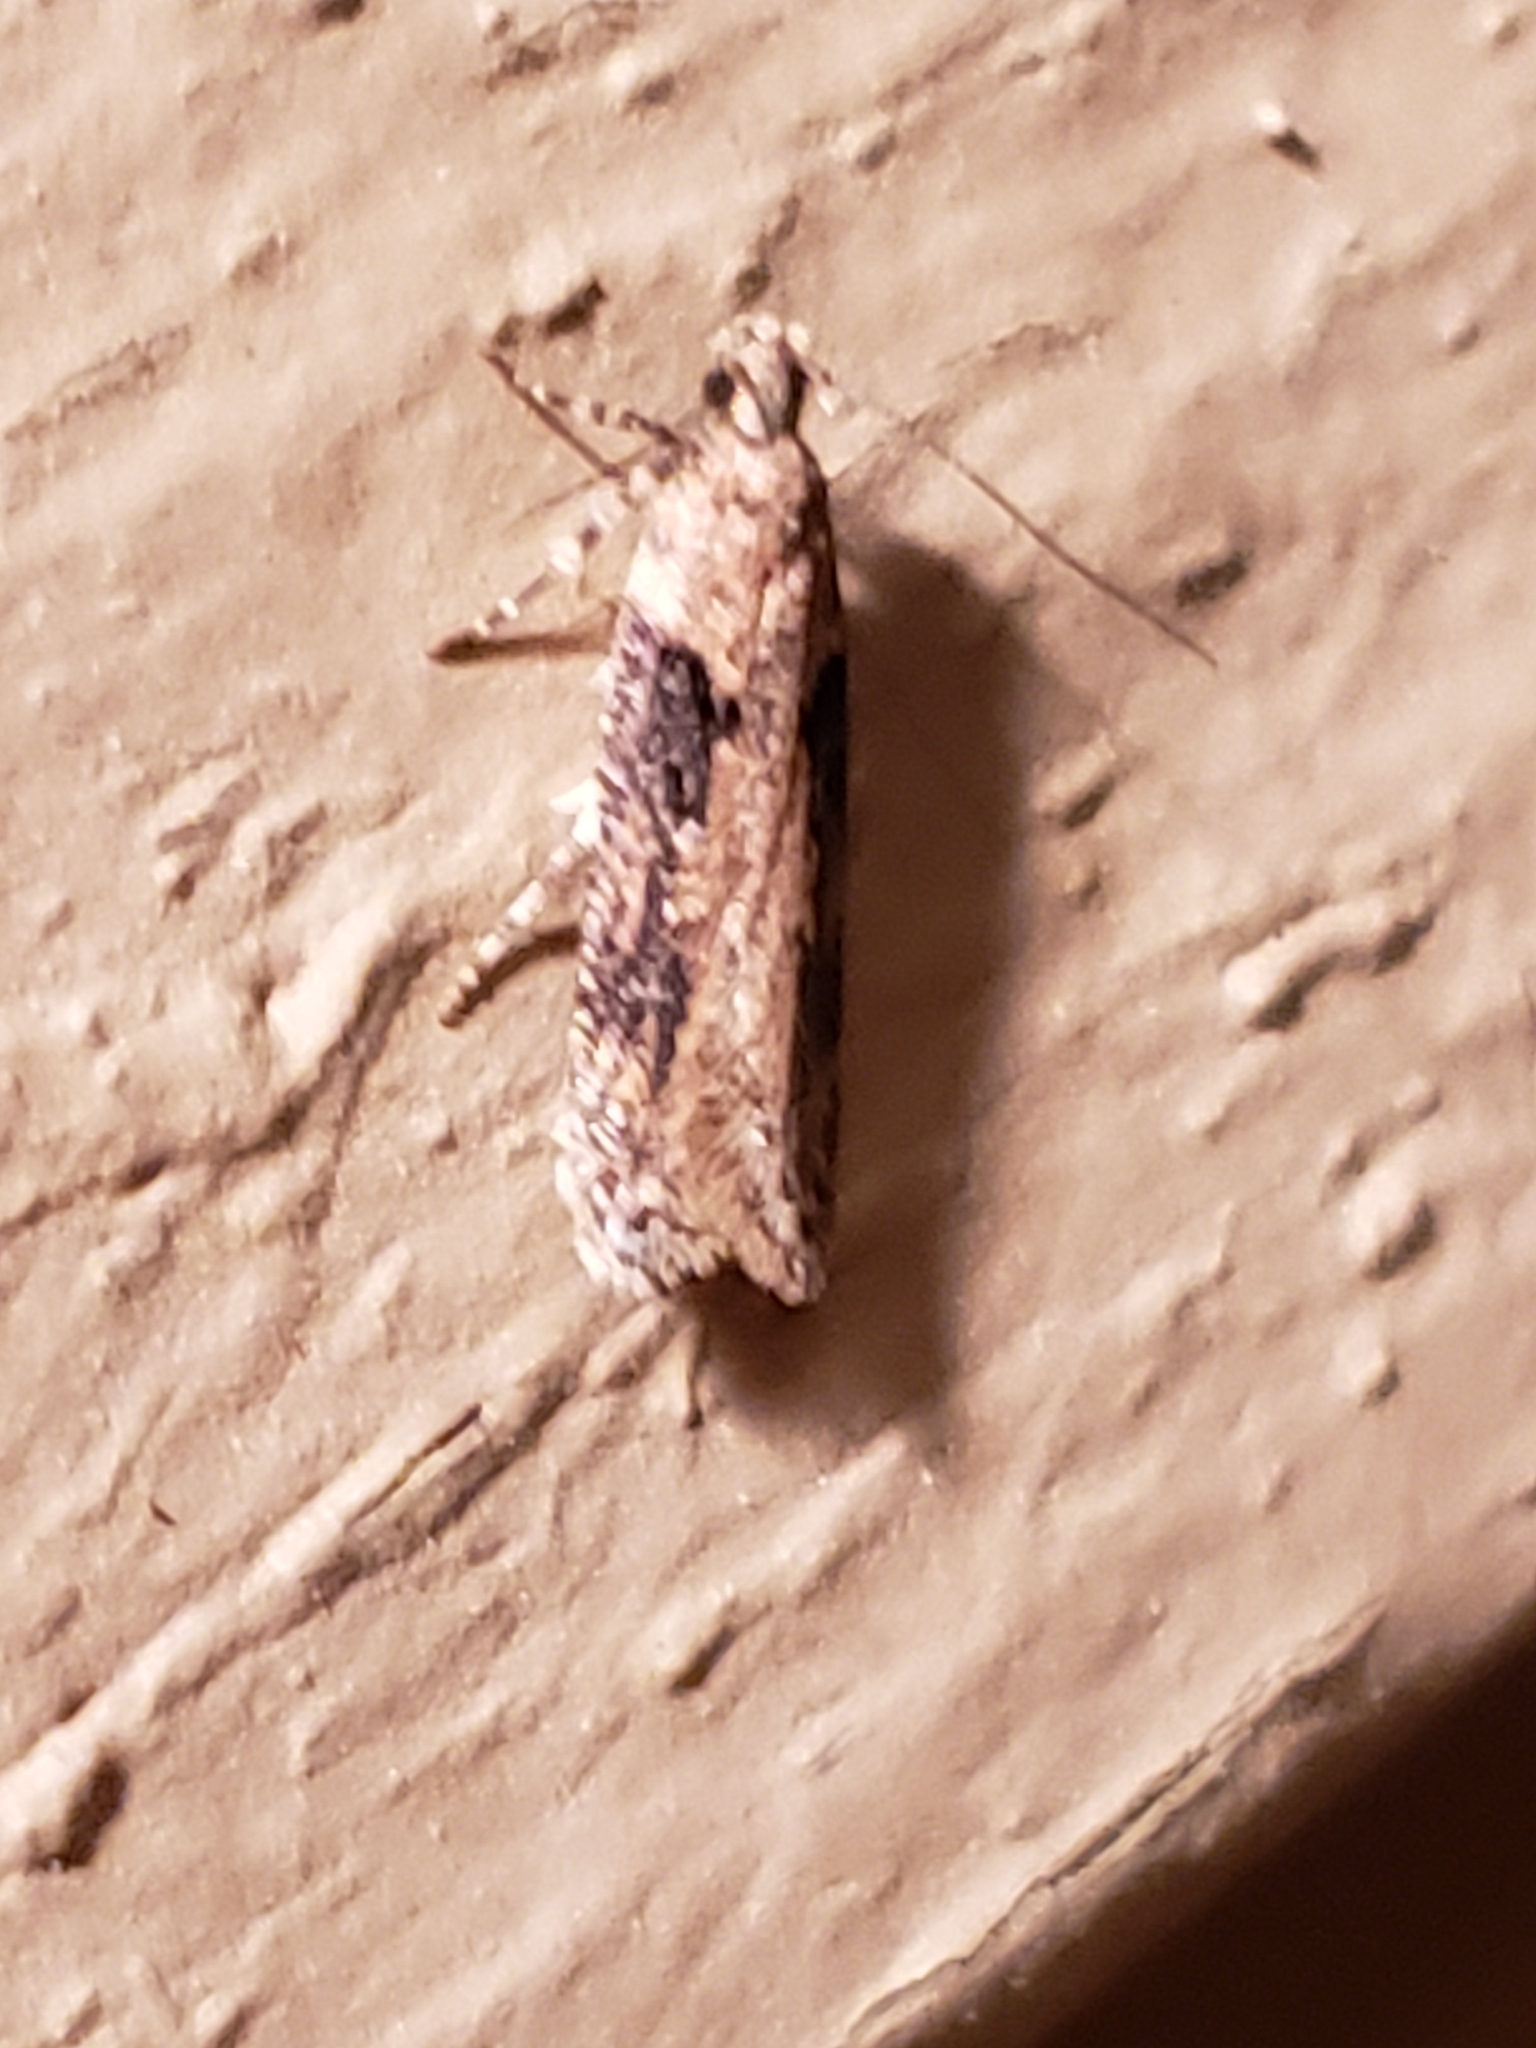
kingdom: Animalia
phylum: Arthropoda
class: Insecta
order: Lepidoptera
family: Gelechiidae
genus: Chionodes
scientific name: Chionodes mediofuscella
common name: Black-smudged chionodes moth
